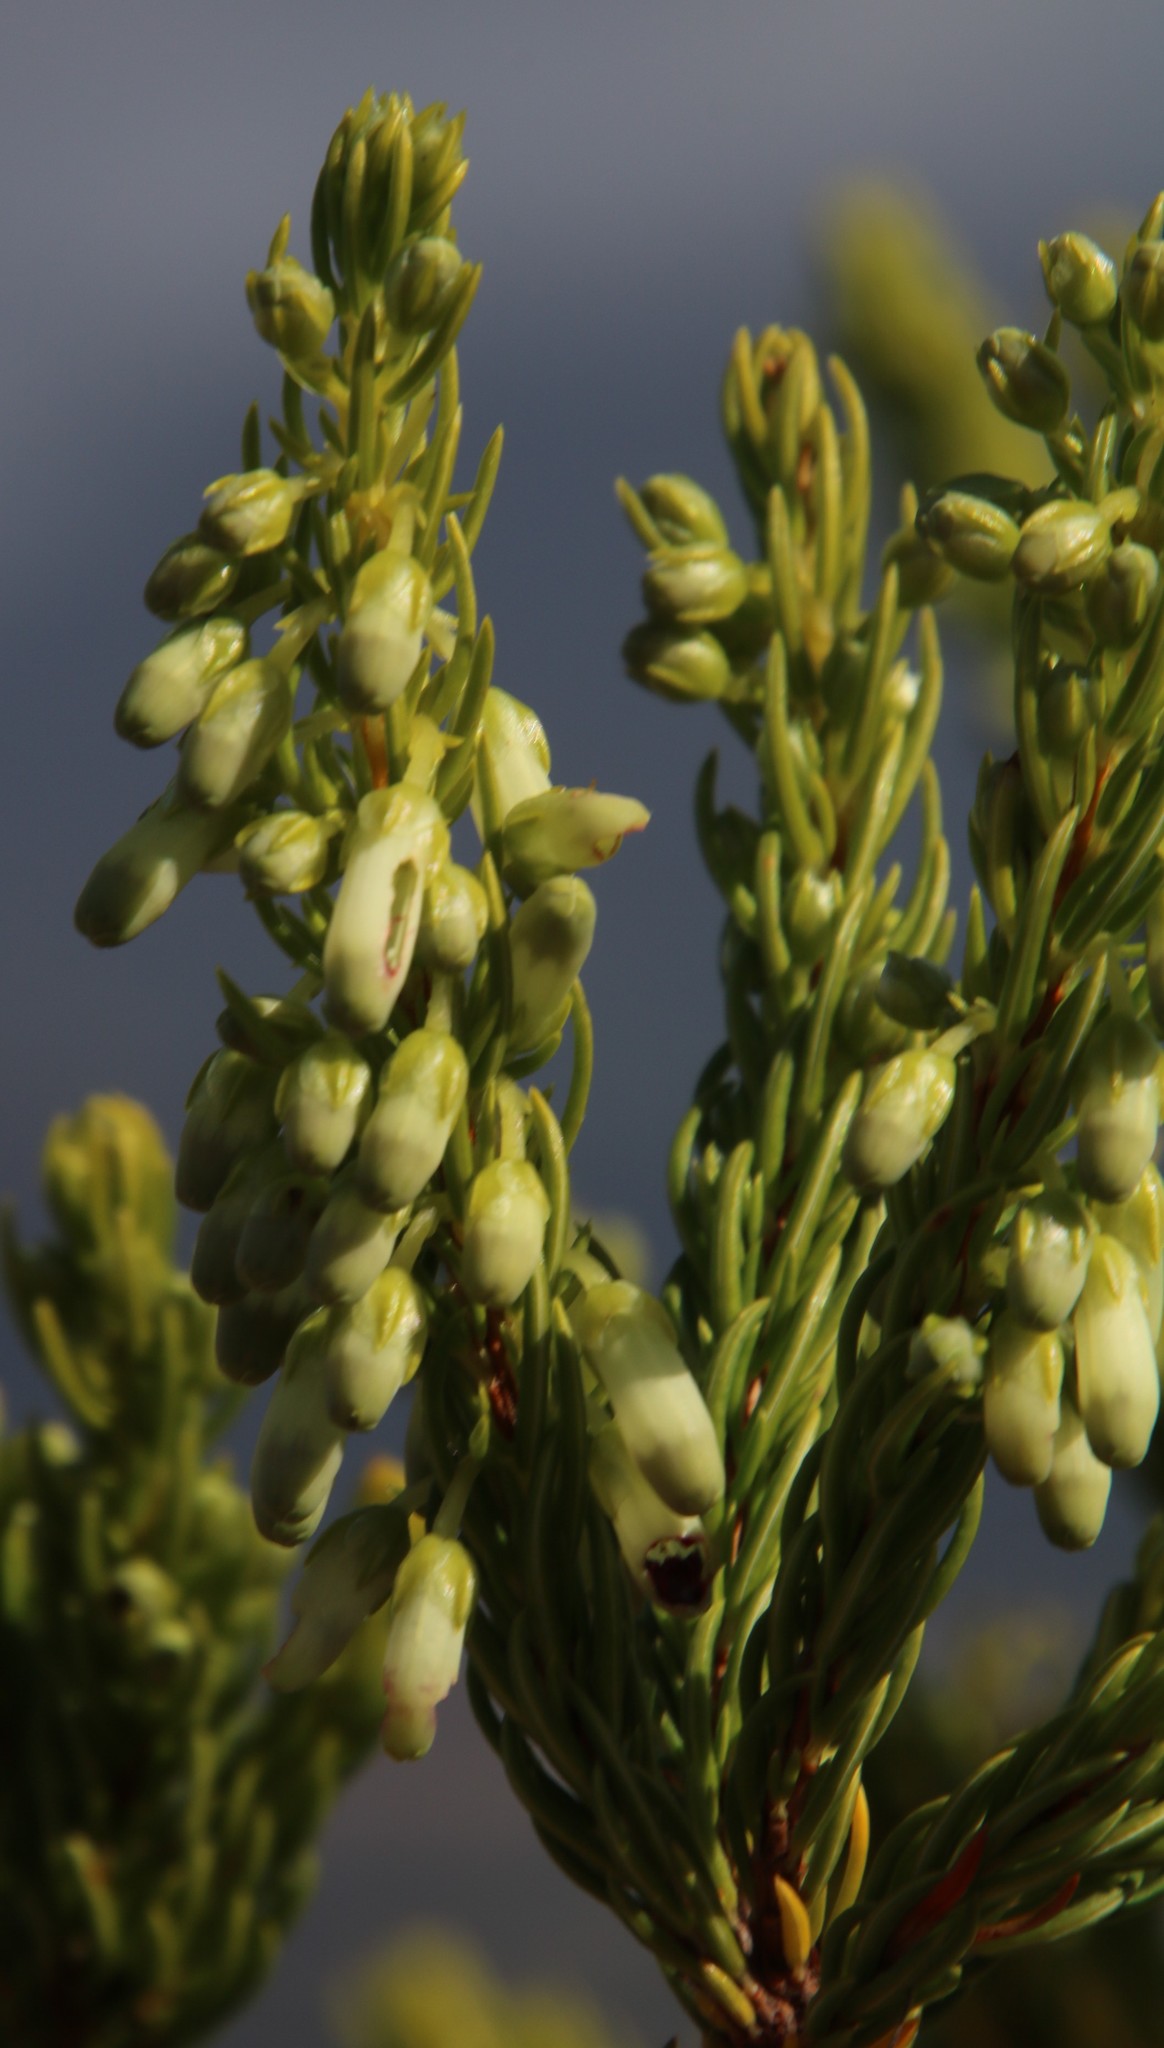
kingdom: Plantae
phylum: Tracheophyta
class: Magnoliopsida
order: Ericales
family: Ericaceae
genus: Erica
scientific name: Erica mammosa
